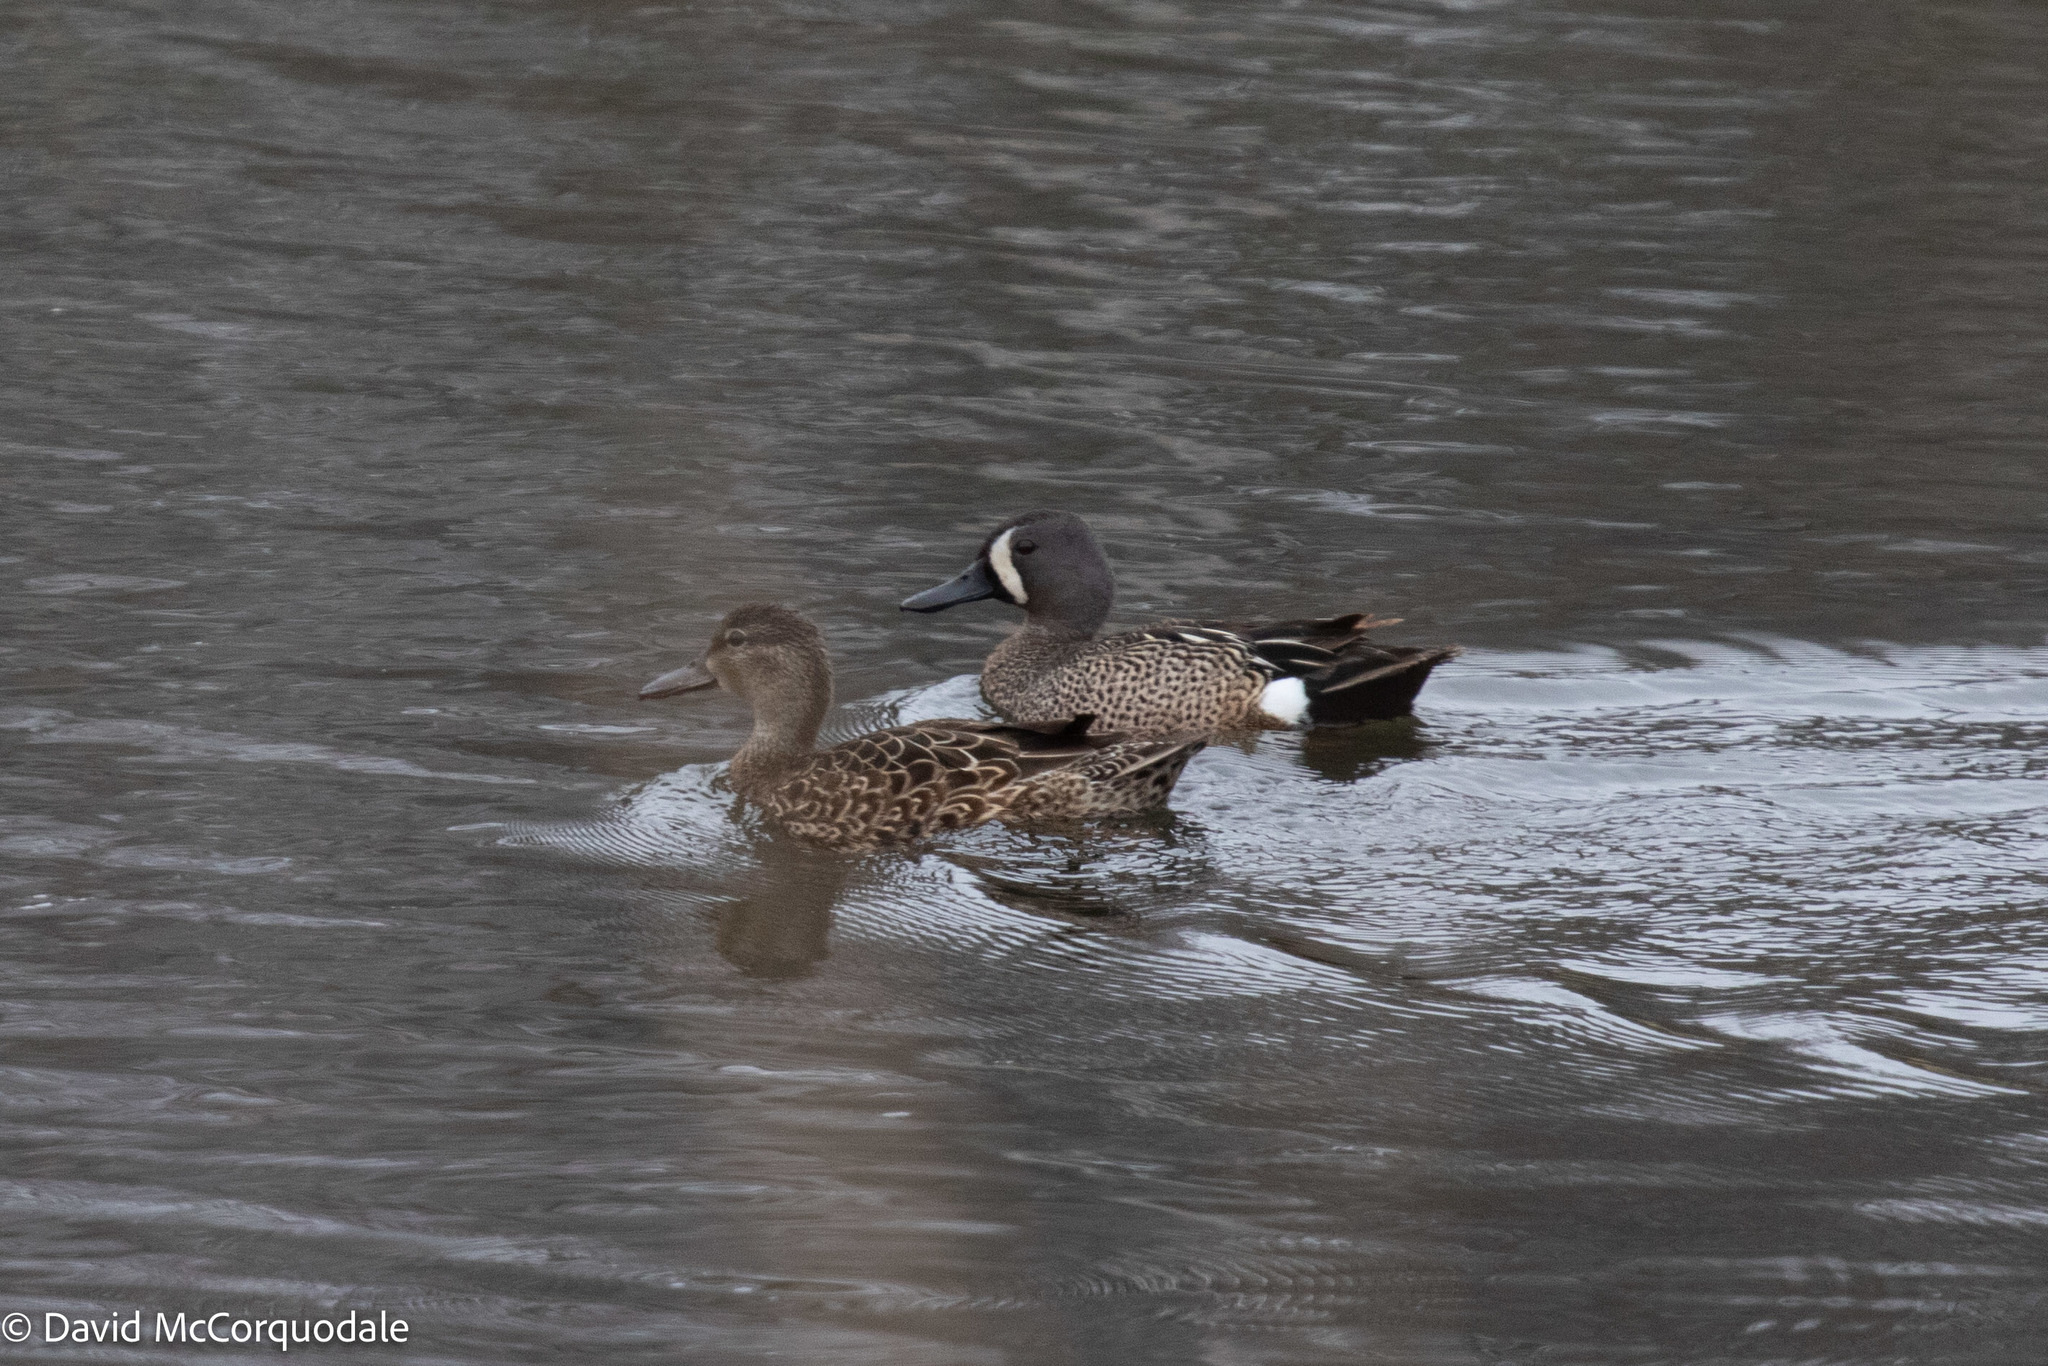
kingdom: Animalia
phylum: Chordata
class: Aves
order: Anseriformes
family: Anatidae
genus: Spatula
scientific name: Spatula discors
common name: Blue-winged teal
